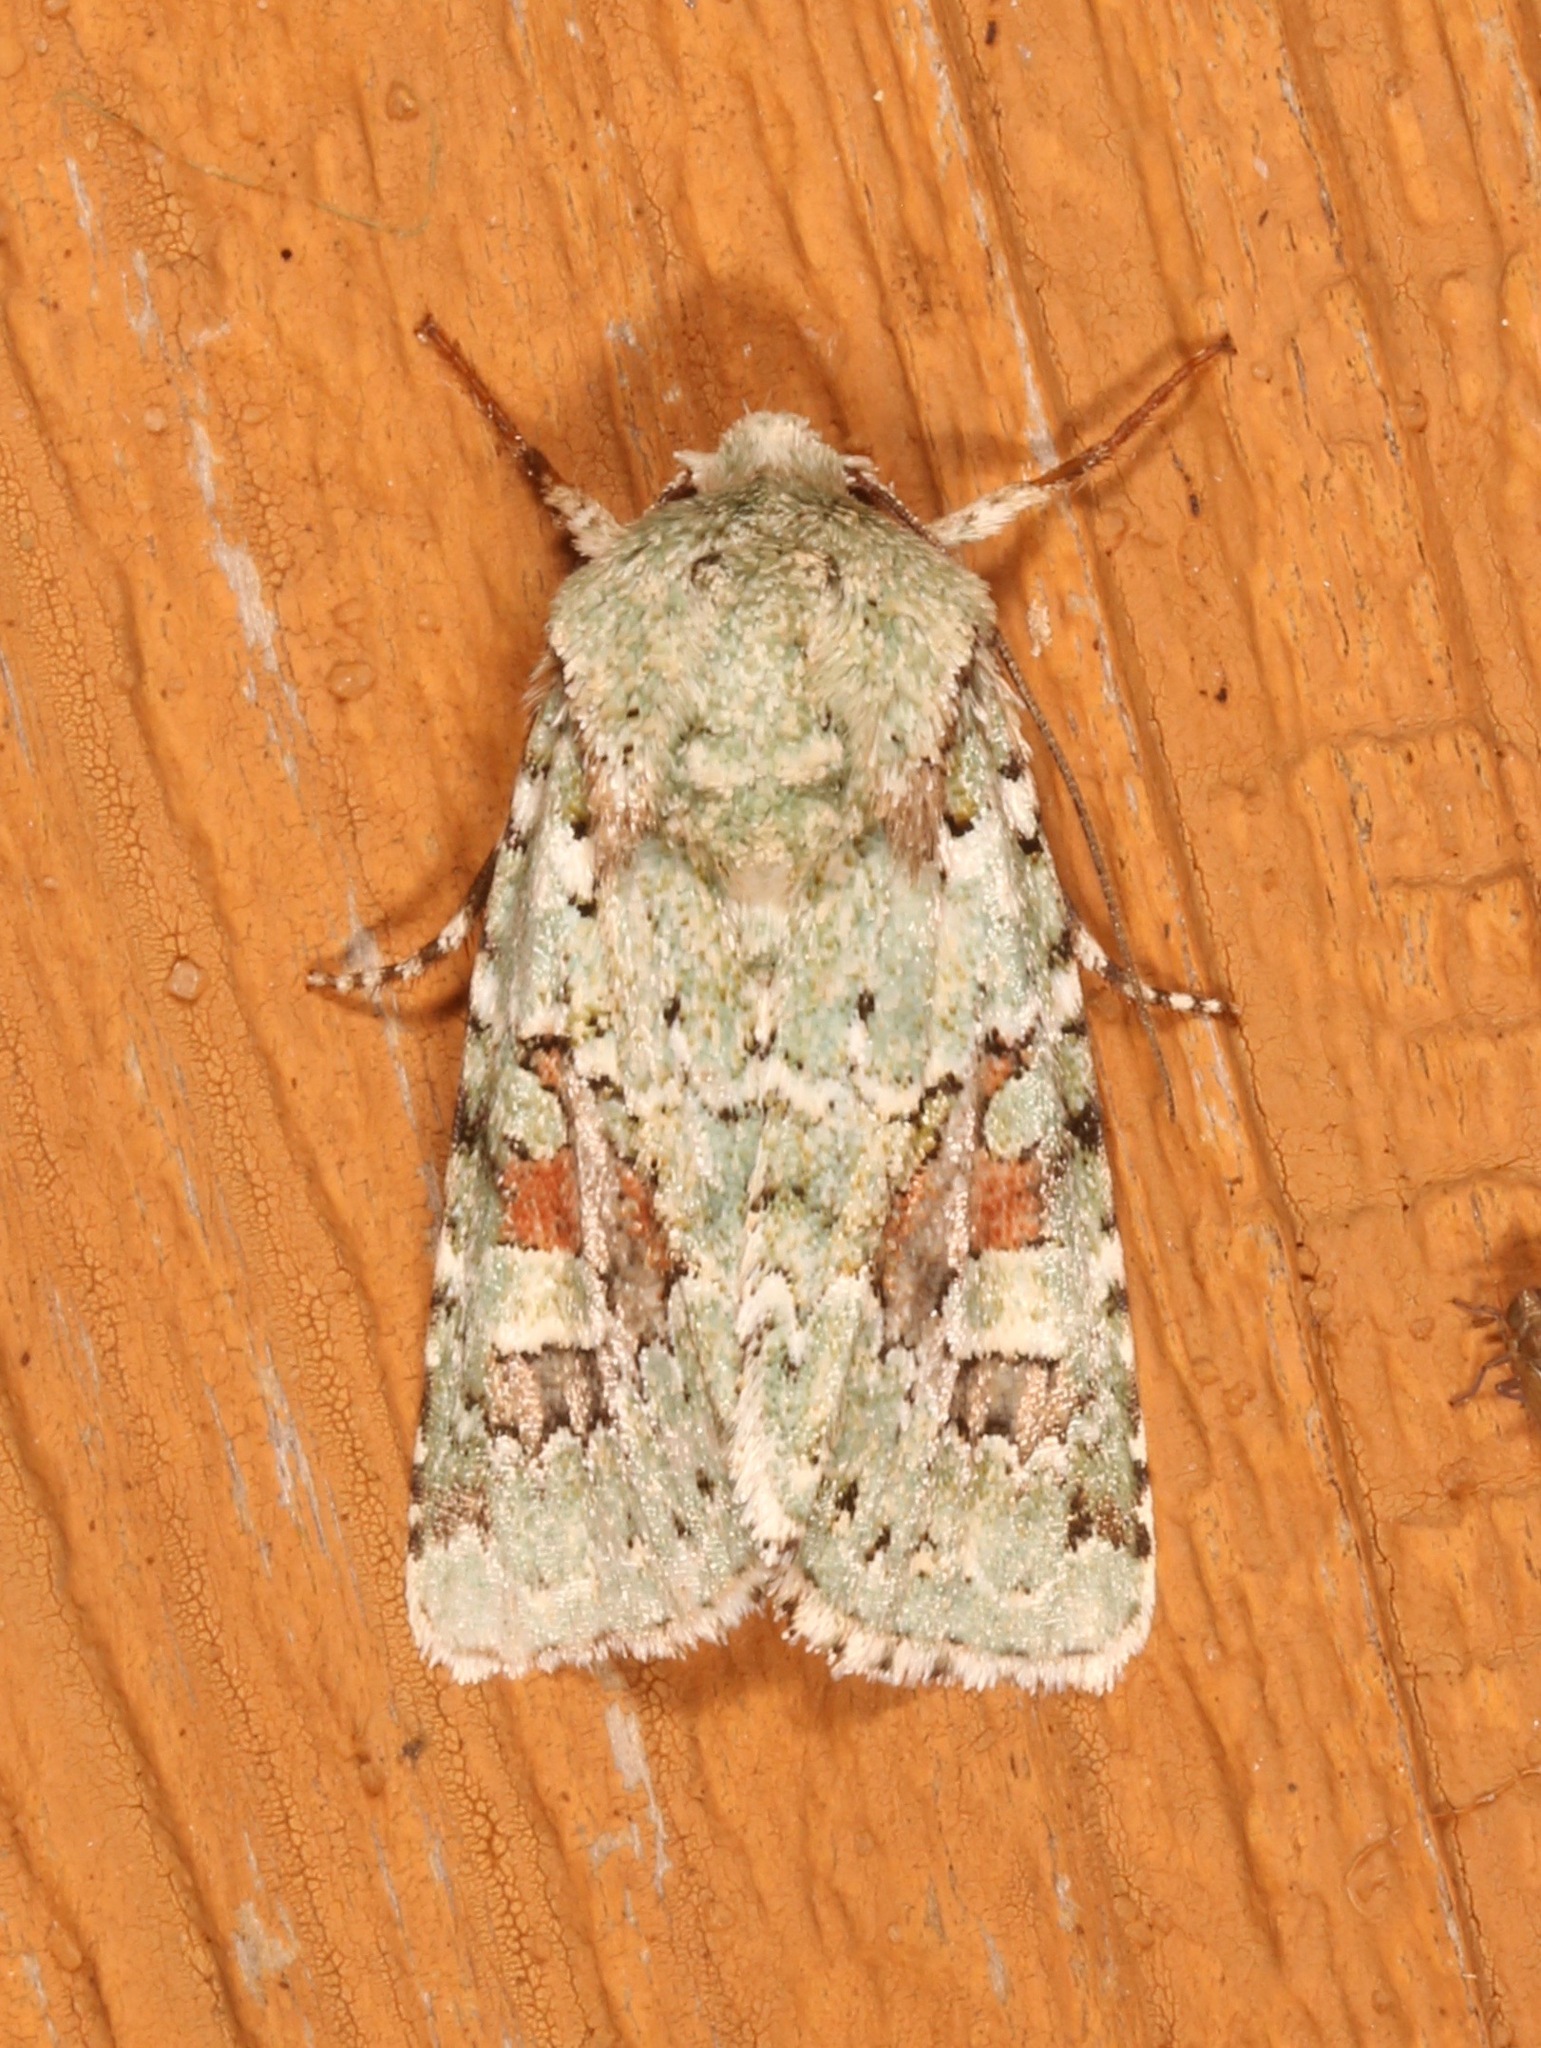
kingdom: Animalia
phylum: Arthropoda
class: Insecta
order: Lepidoptera
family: Noctuidae
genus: Lacinipolia
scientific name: Lacinipolia laudabilis
